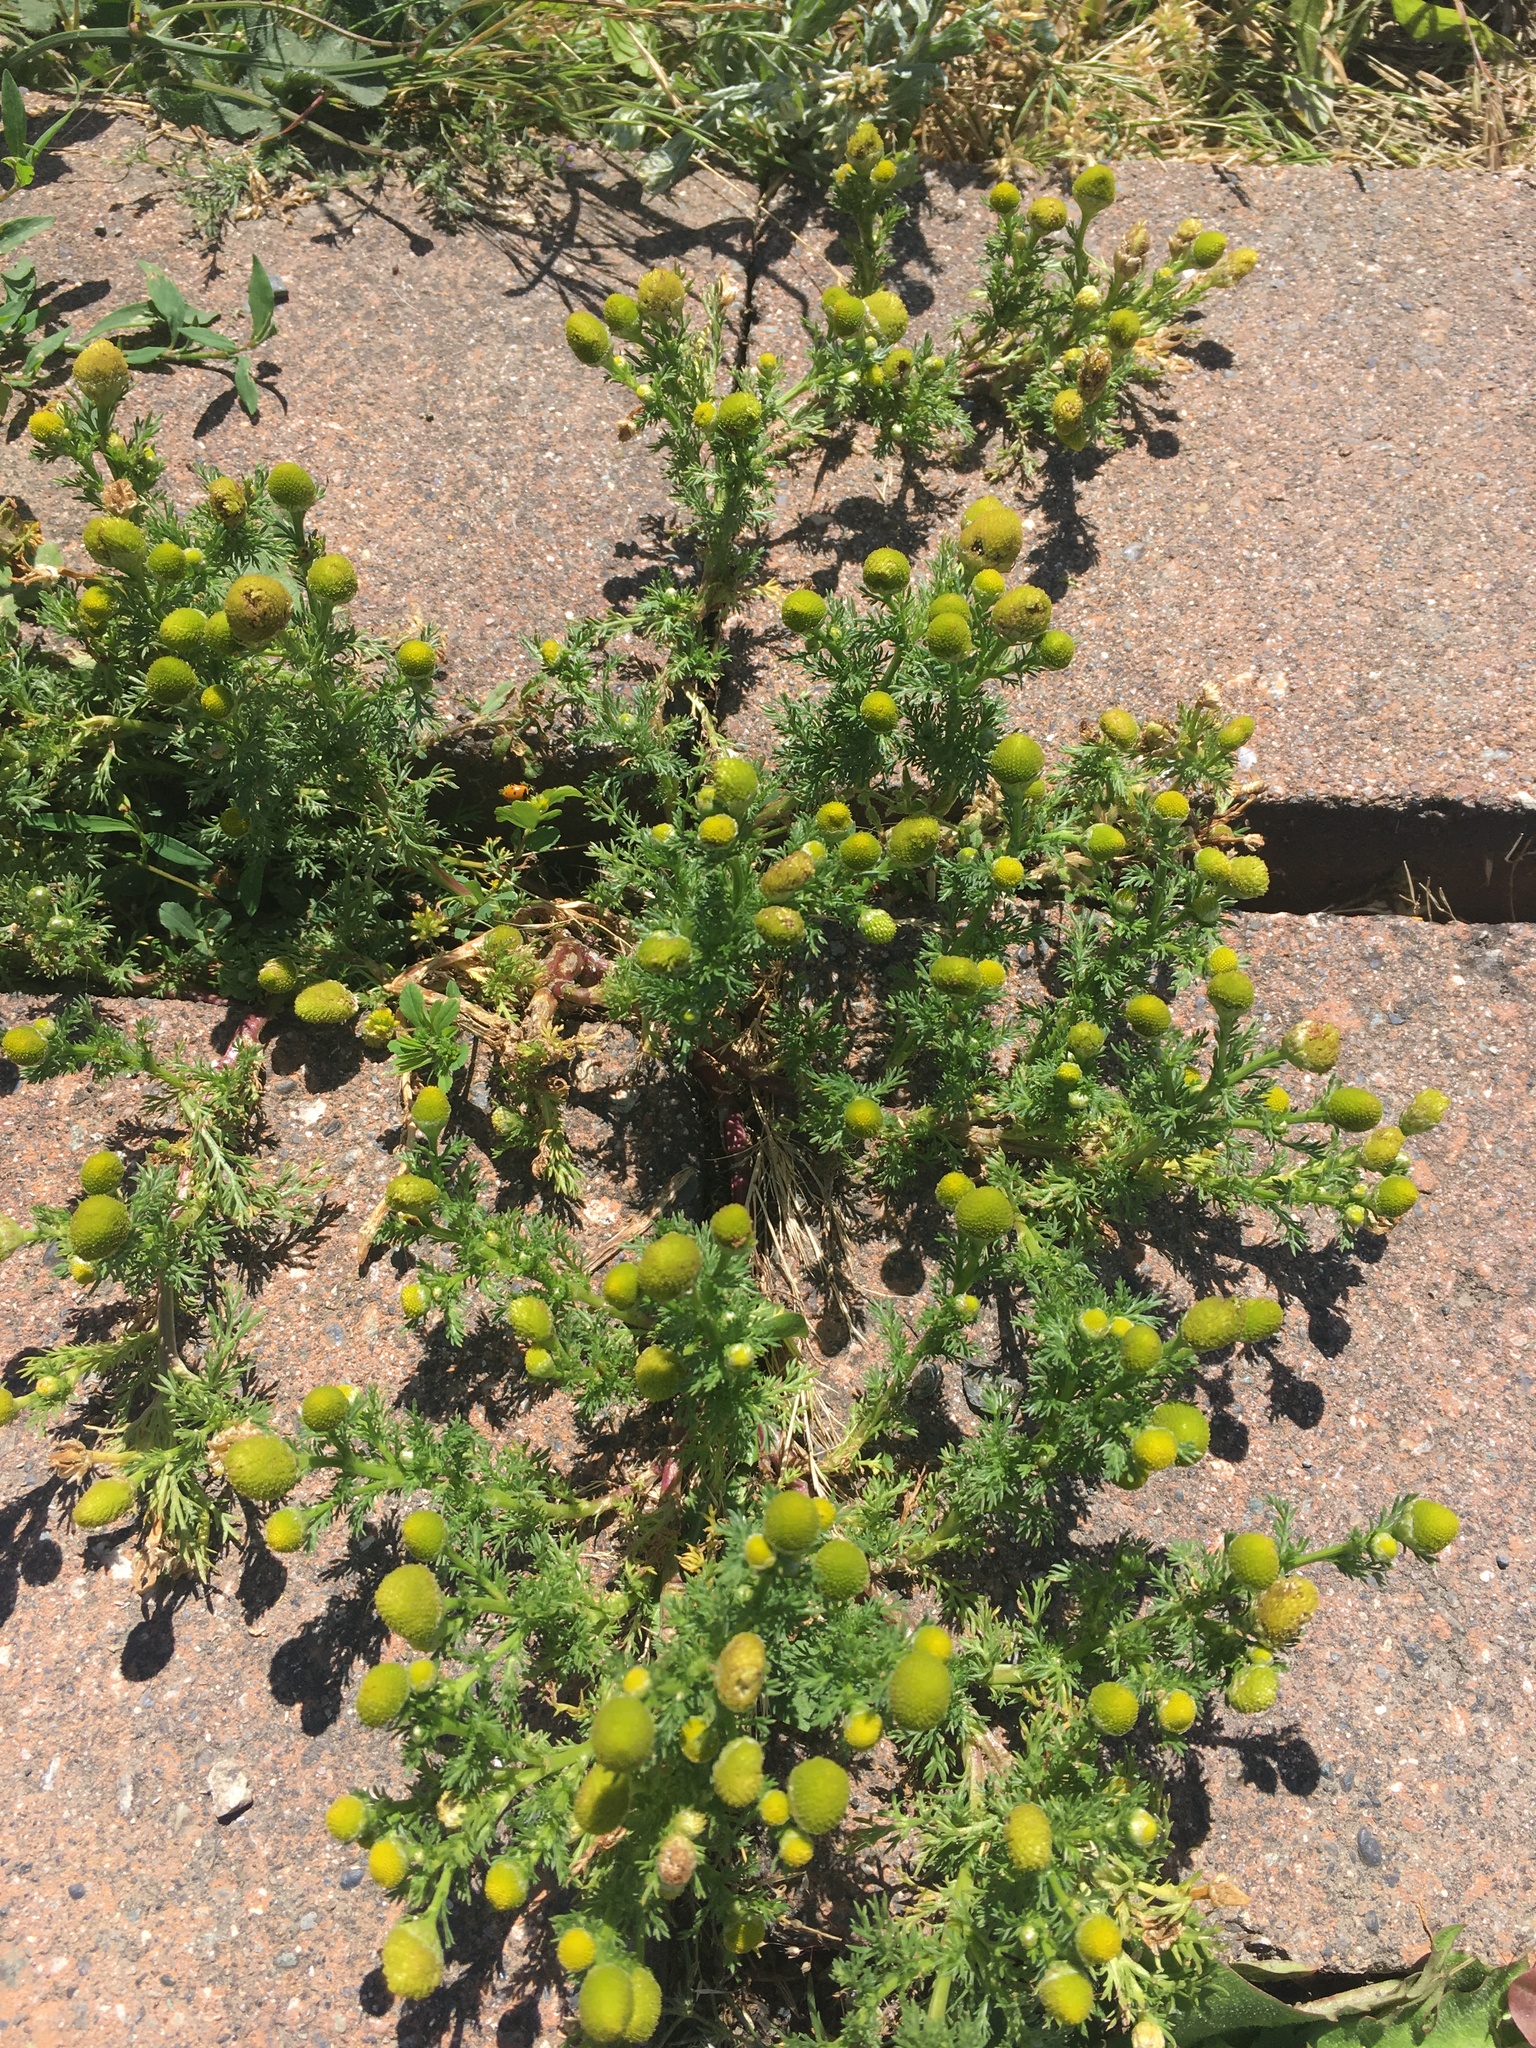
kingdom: Plantae
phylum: Tracheophyta
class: Magnoliopsida
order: Asterales
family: Asteraceae
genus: Matricaria
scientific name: Matricaria discoidea
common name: Disc mayweed
